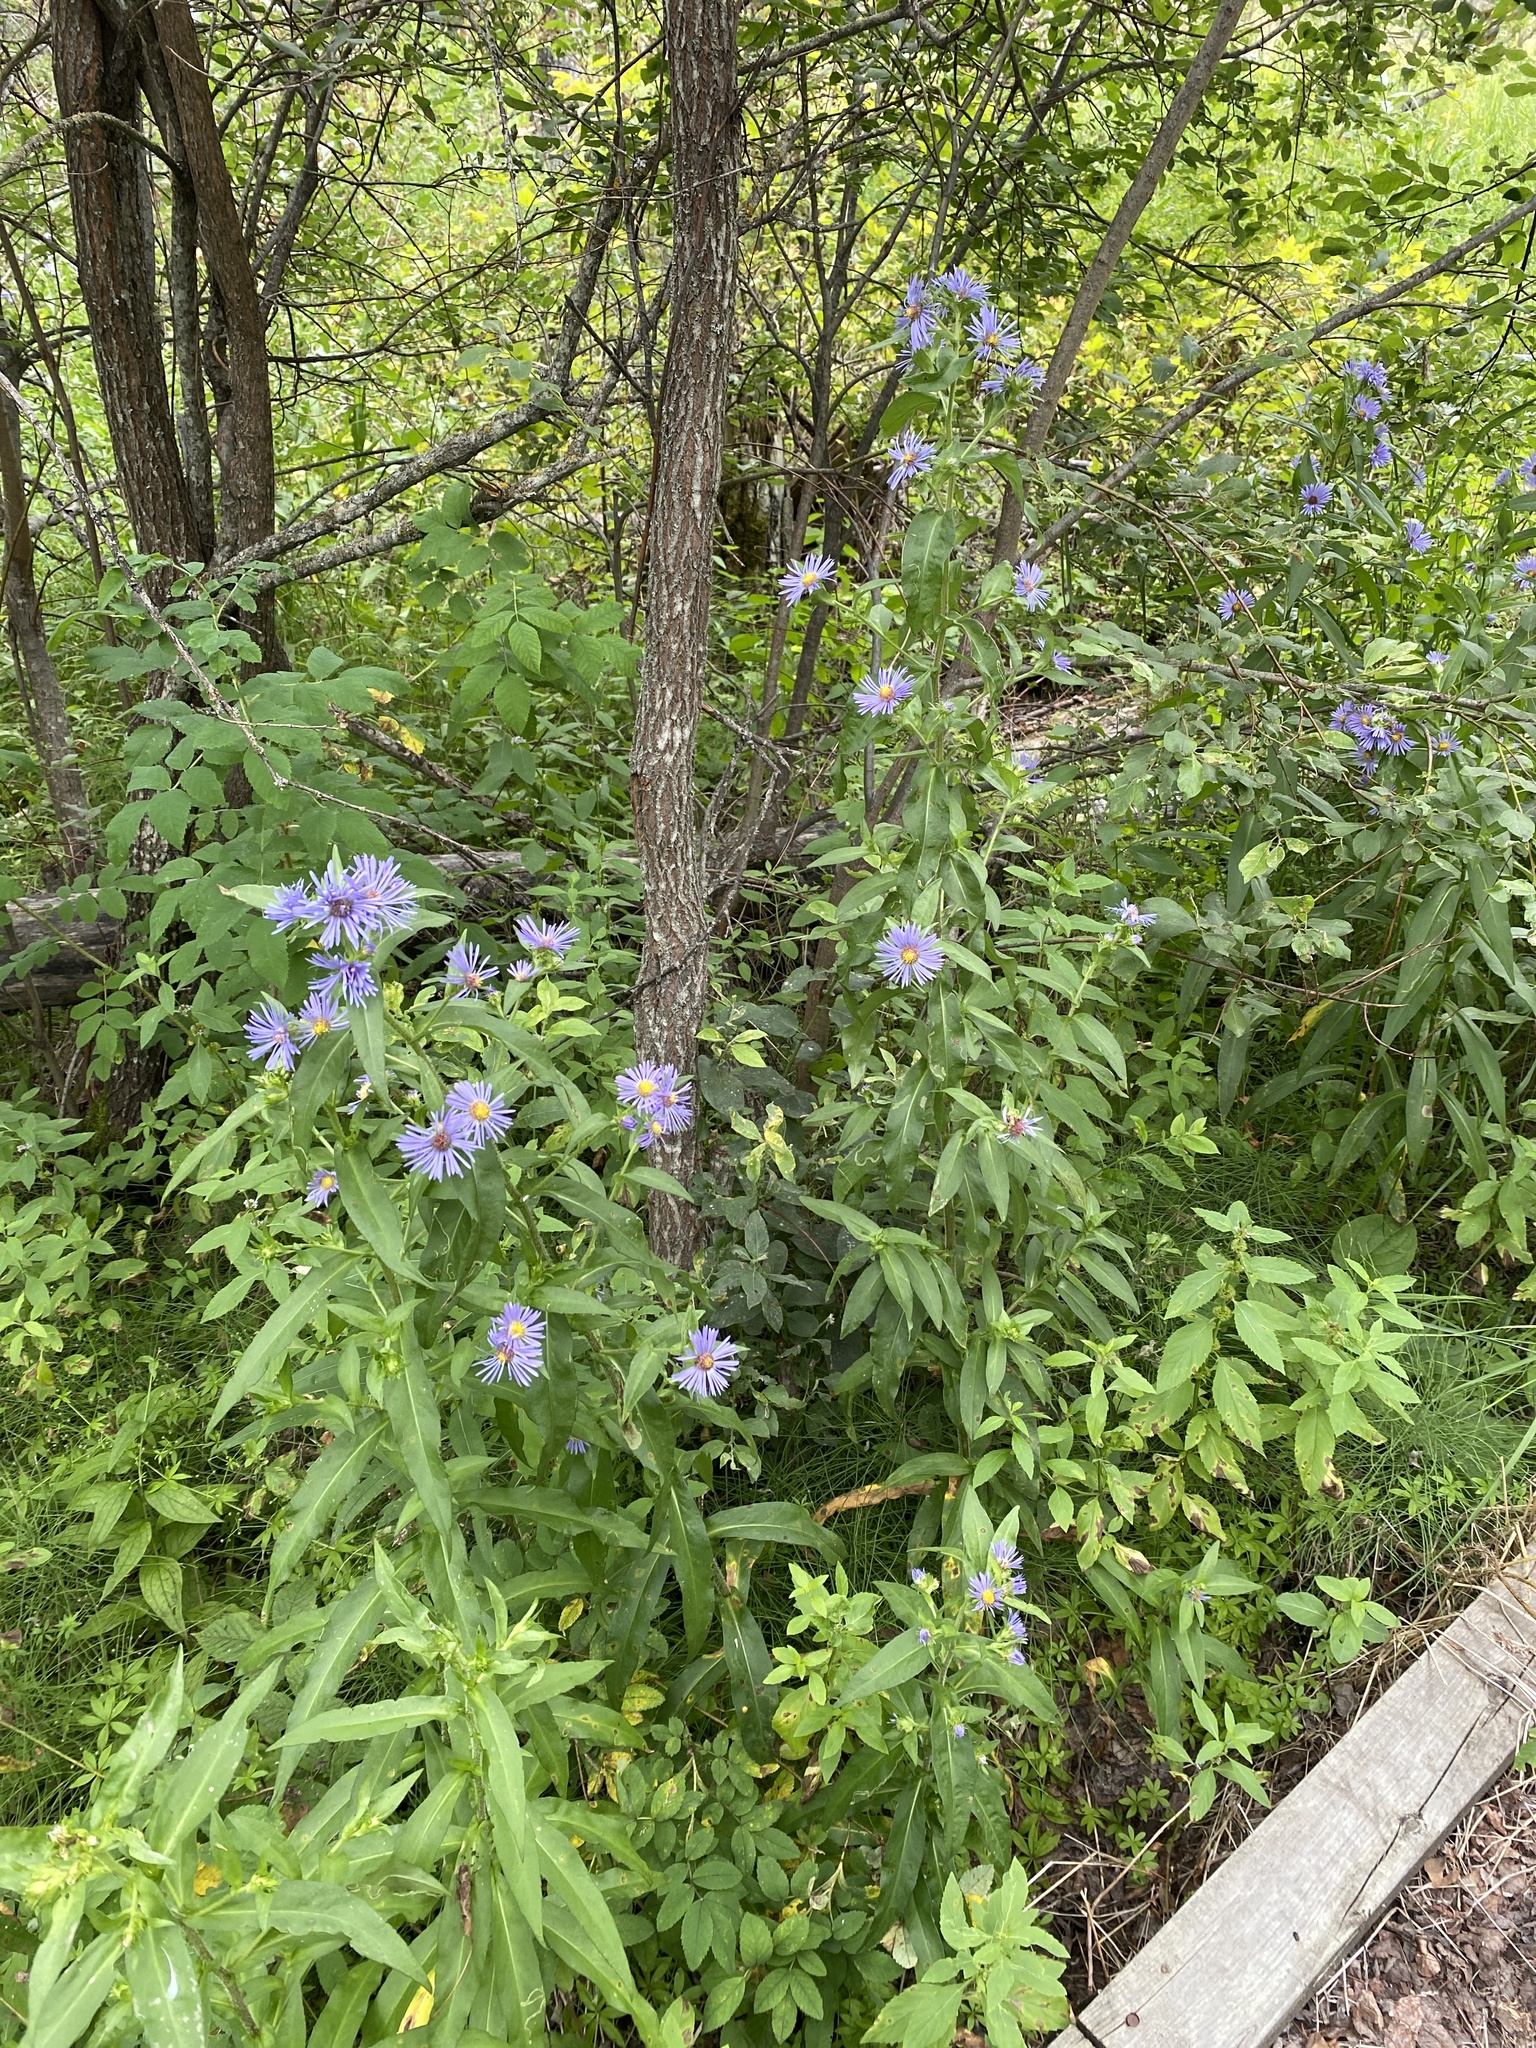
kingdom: Plantae
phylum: Tracheophyta
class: Magnoliopsida
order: Asterales
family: Asteraceae
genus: Symphyotrichum
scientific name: Symphyotrichum puniceum
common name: Bog aster
